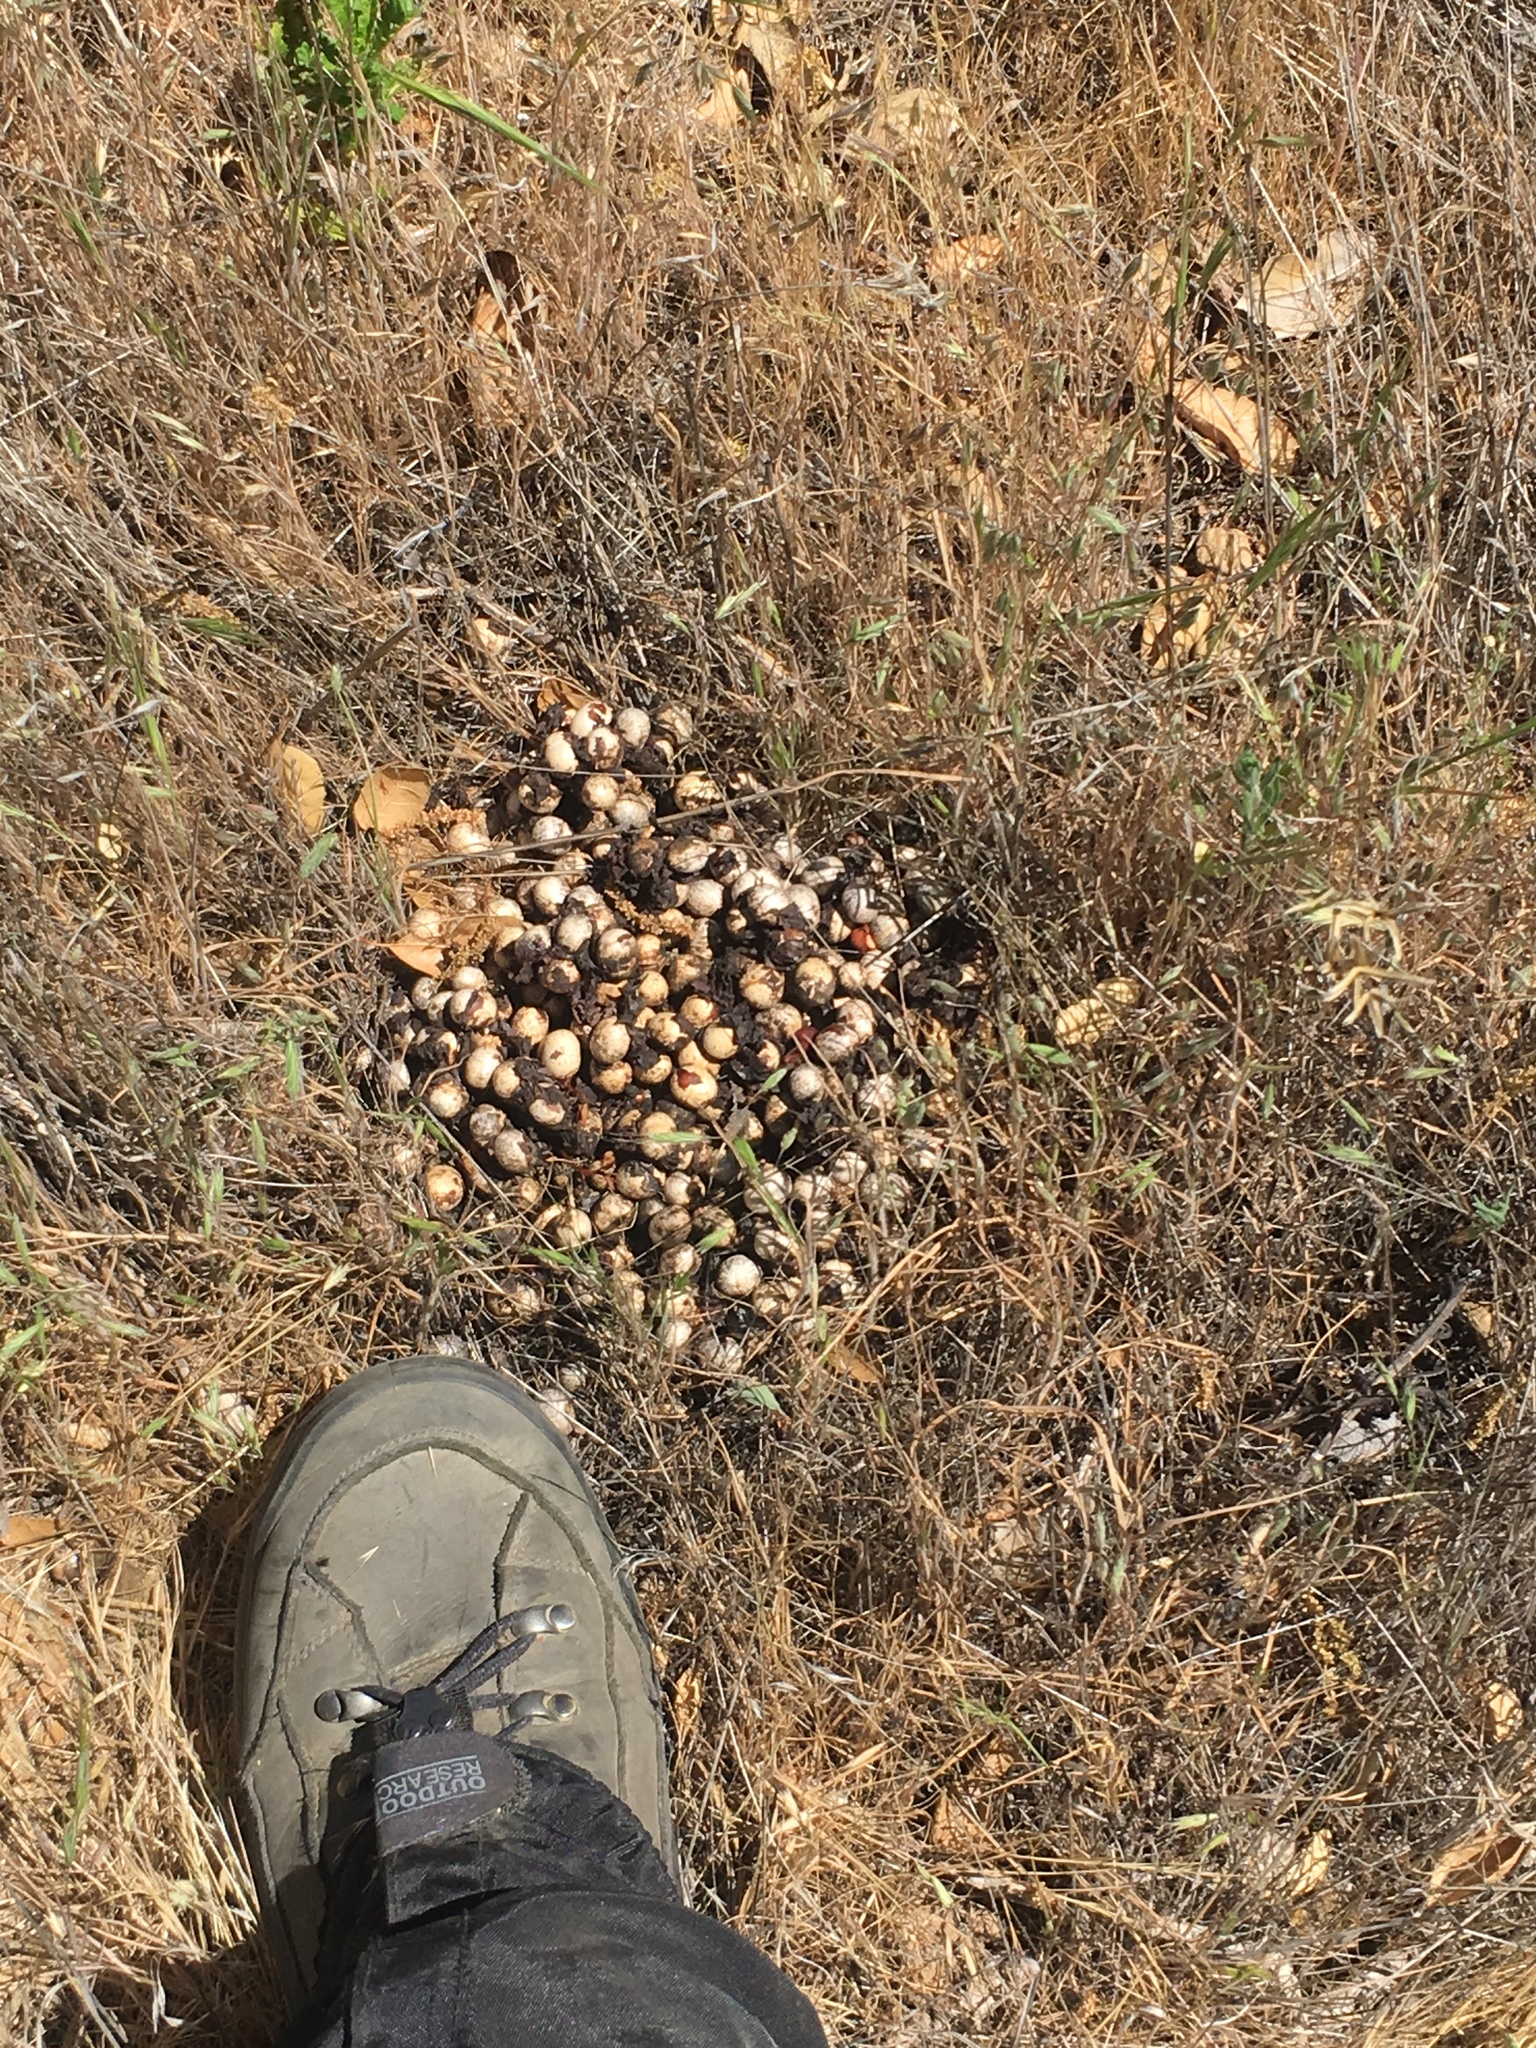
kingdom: Animalia
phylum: Chordata
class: Mammalia
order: Carnivora
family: Ursidae
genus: Ursus
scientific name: Ursus americanus
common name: American black bear
